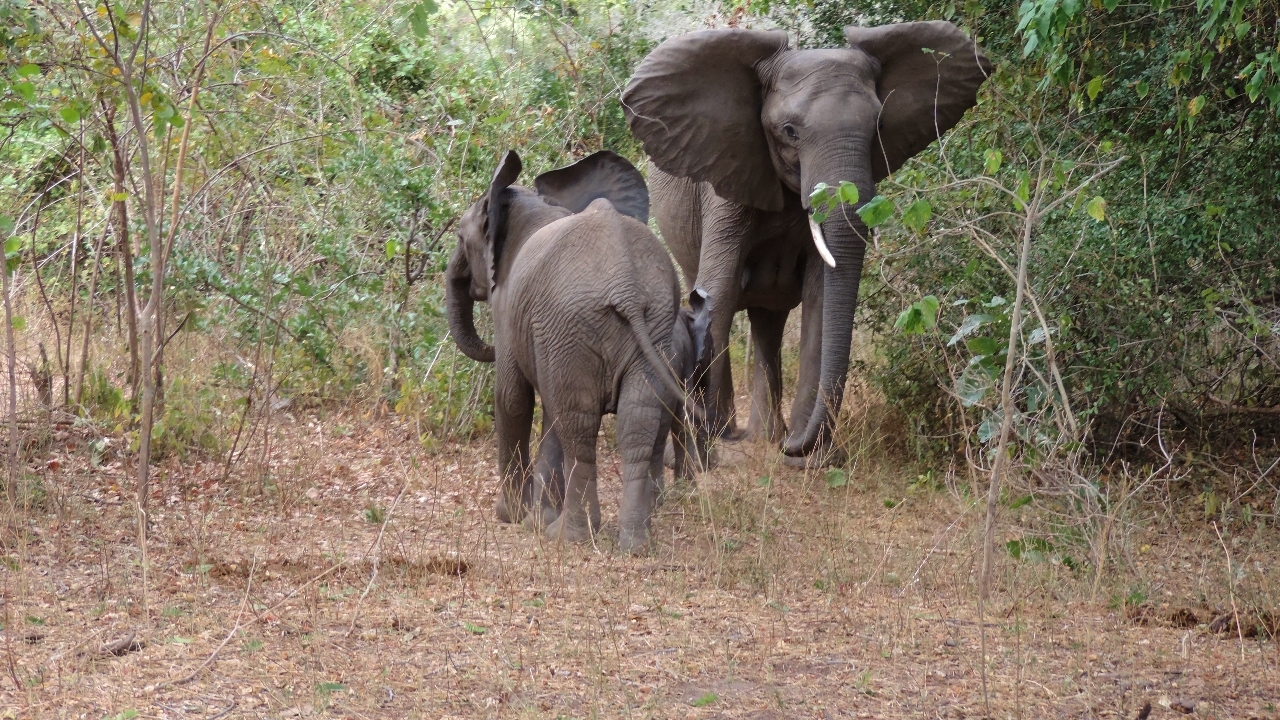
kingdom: Animalia
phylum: Chordata
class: Mammalia
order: Proboscidea
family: Elephantidae
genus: Loxodonta
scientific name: Loxodonta africana
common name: African elephant
